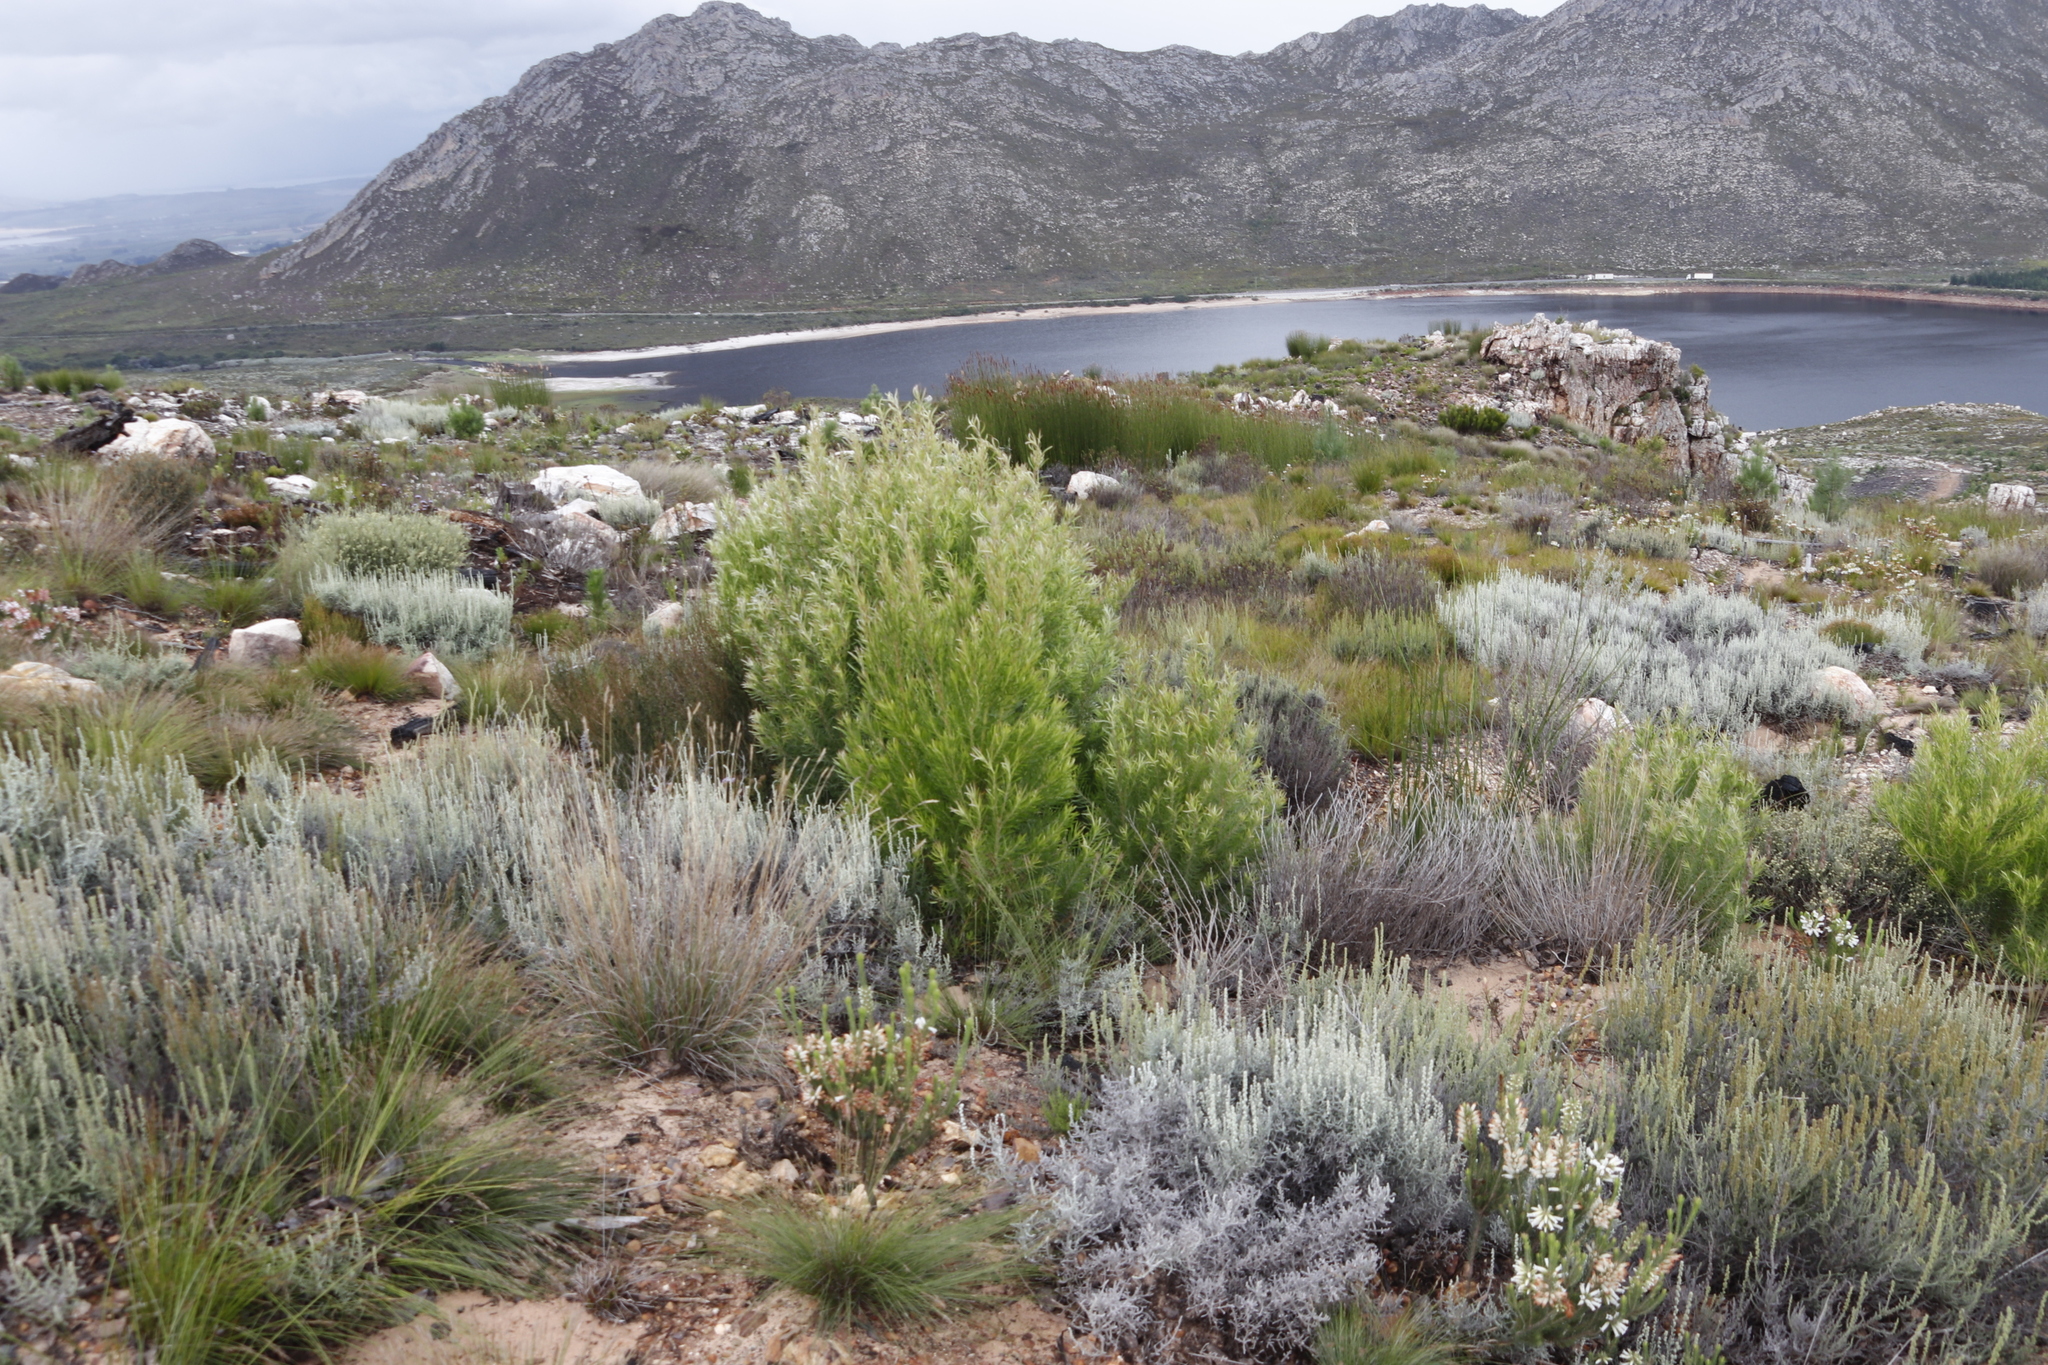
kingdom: Plantae
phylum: Tracheophyta
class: Magnoliopsida
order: Proteales
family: Proteaceae
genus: Leucadendron
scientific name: Leucadendron salicifolium
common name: Common stream conebush
